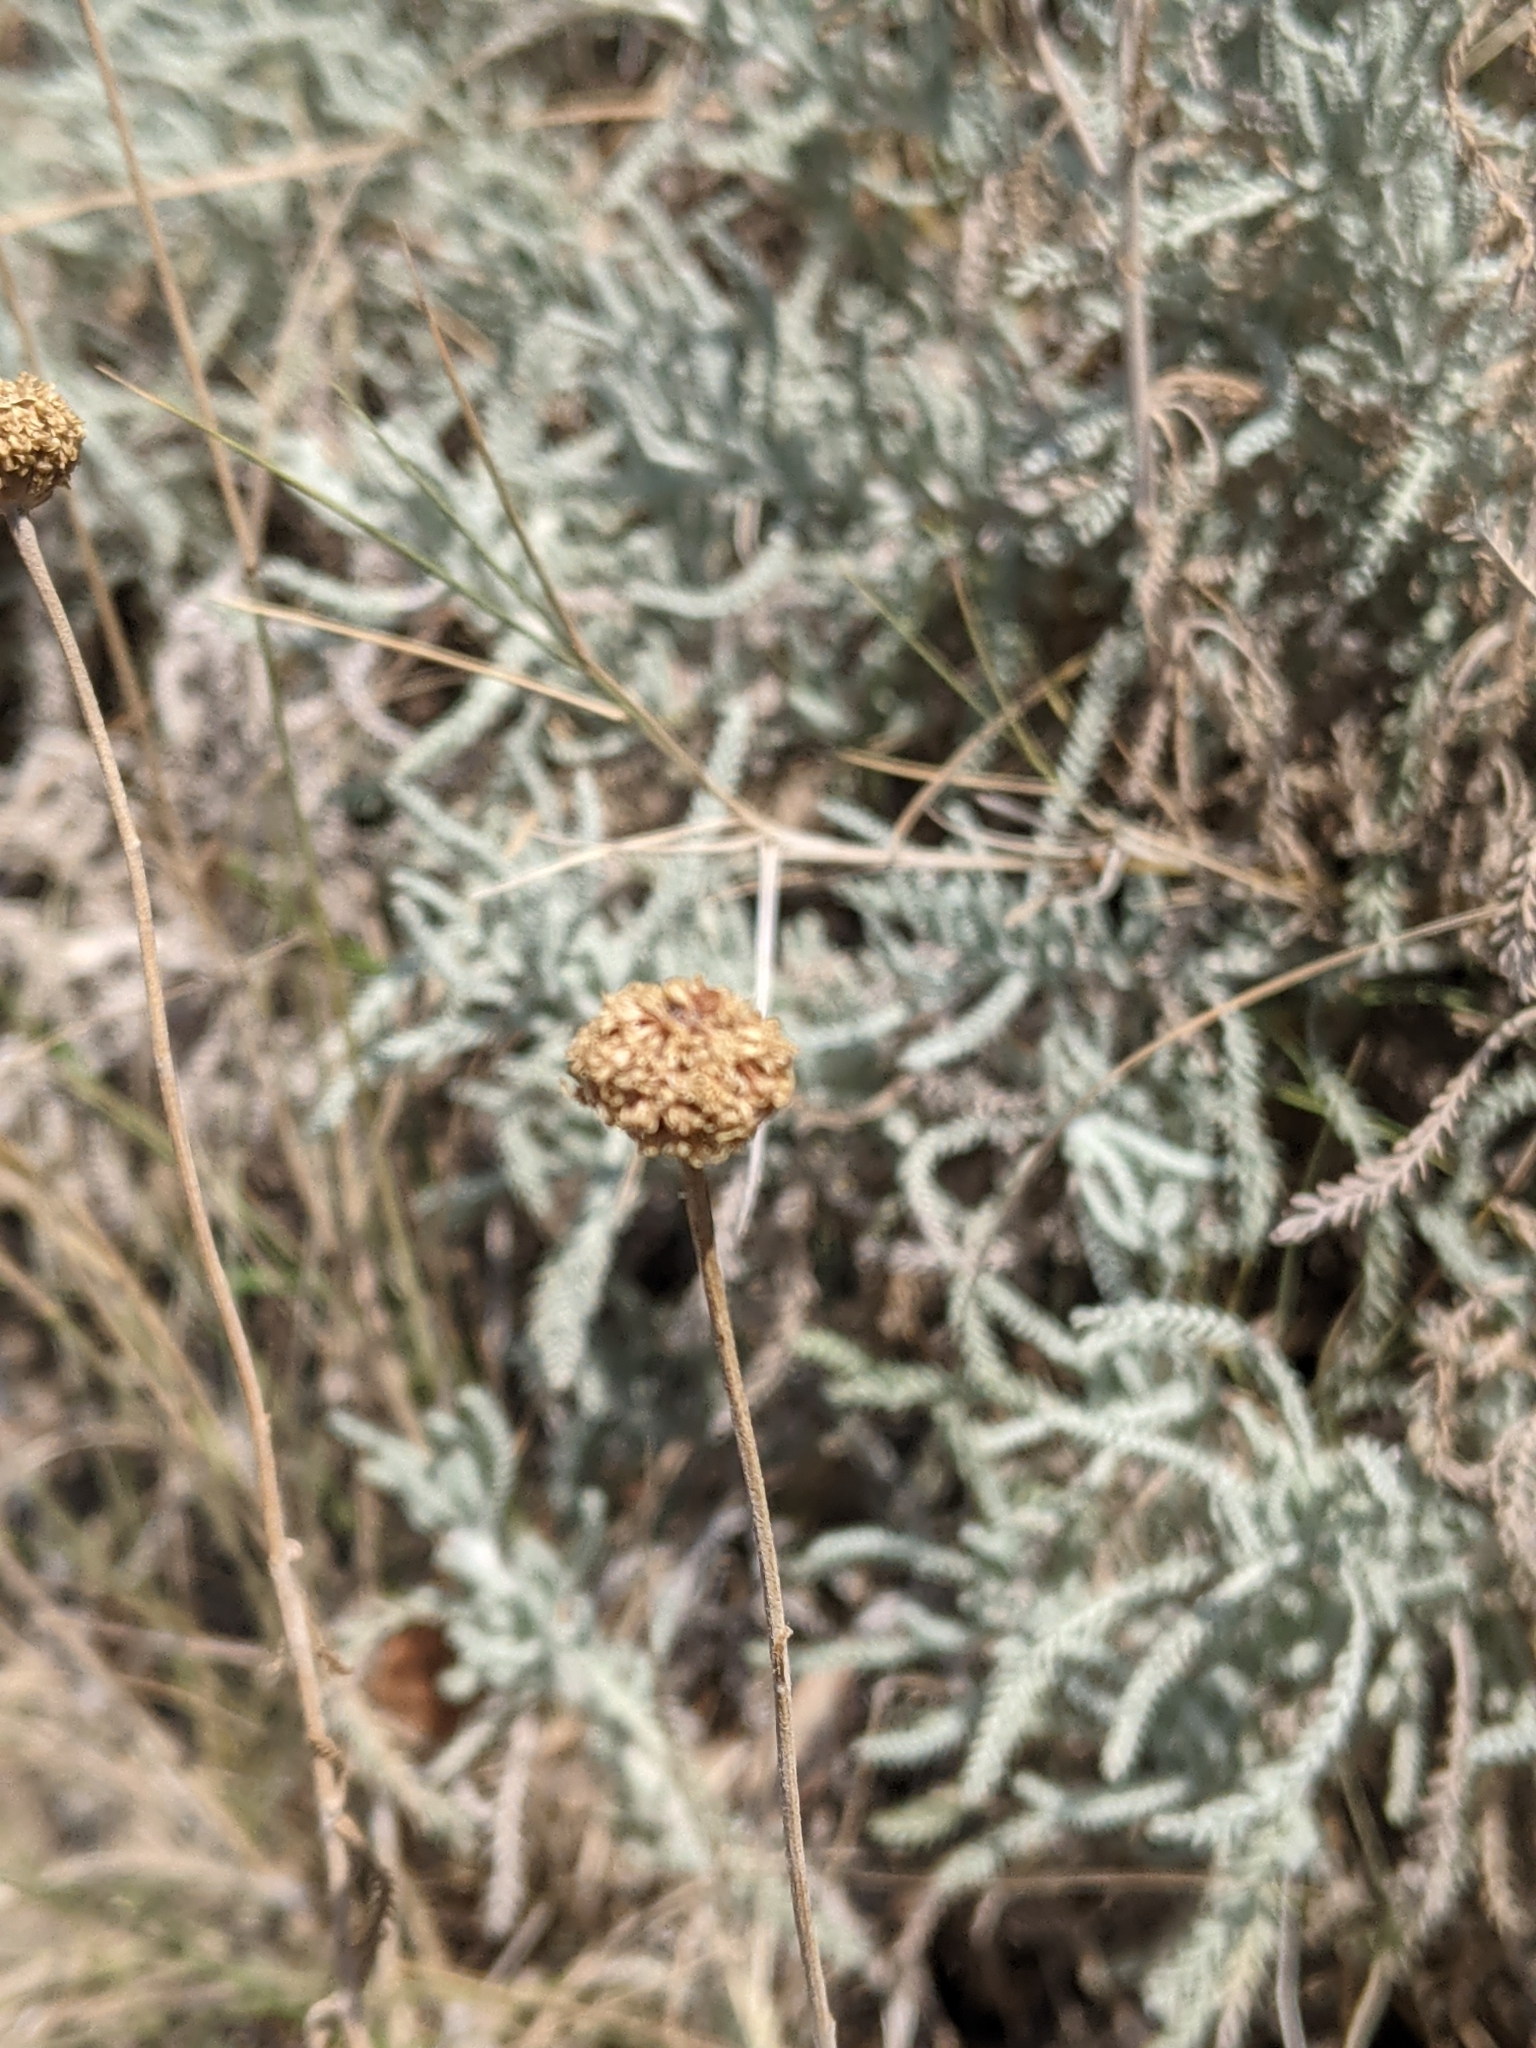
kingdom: Plantae
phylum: Tracheophyta
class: Magnoliopsida
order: Asterales
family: Asteraceae
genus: Santolina
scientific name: Santolina neapolitana
